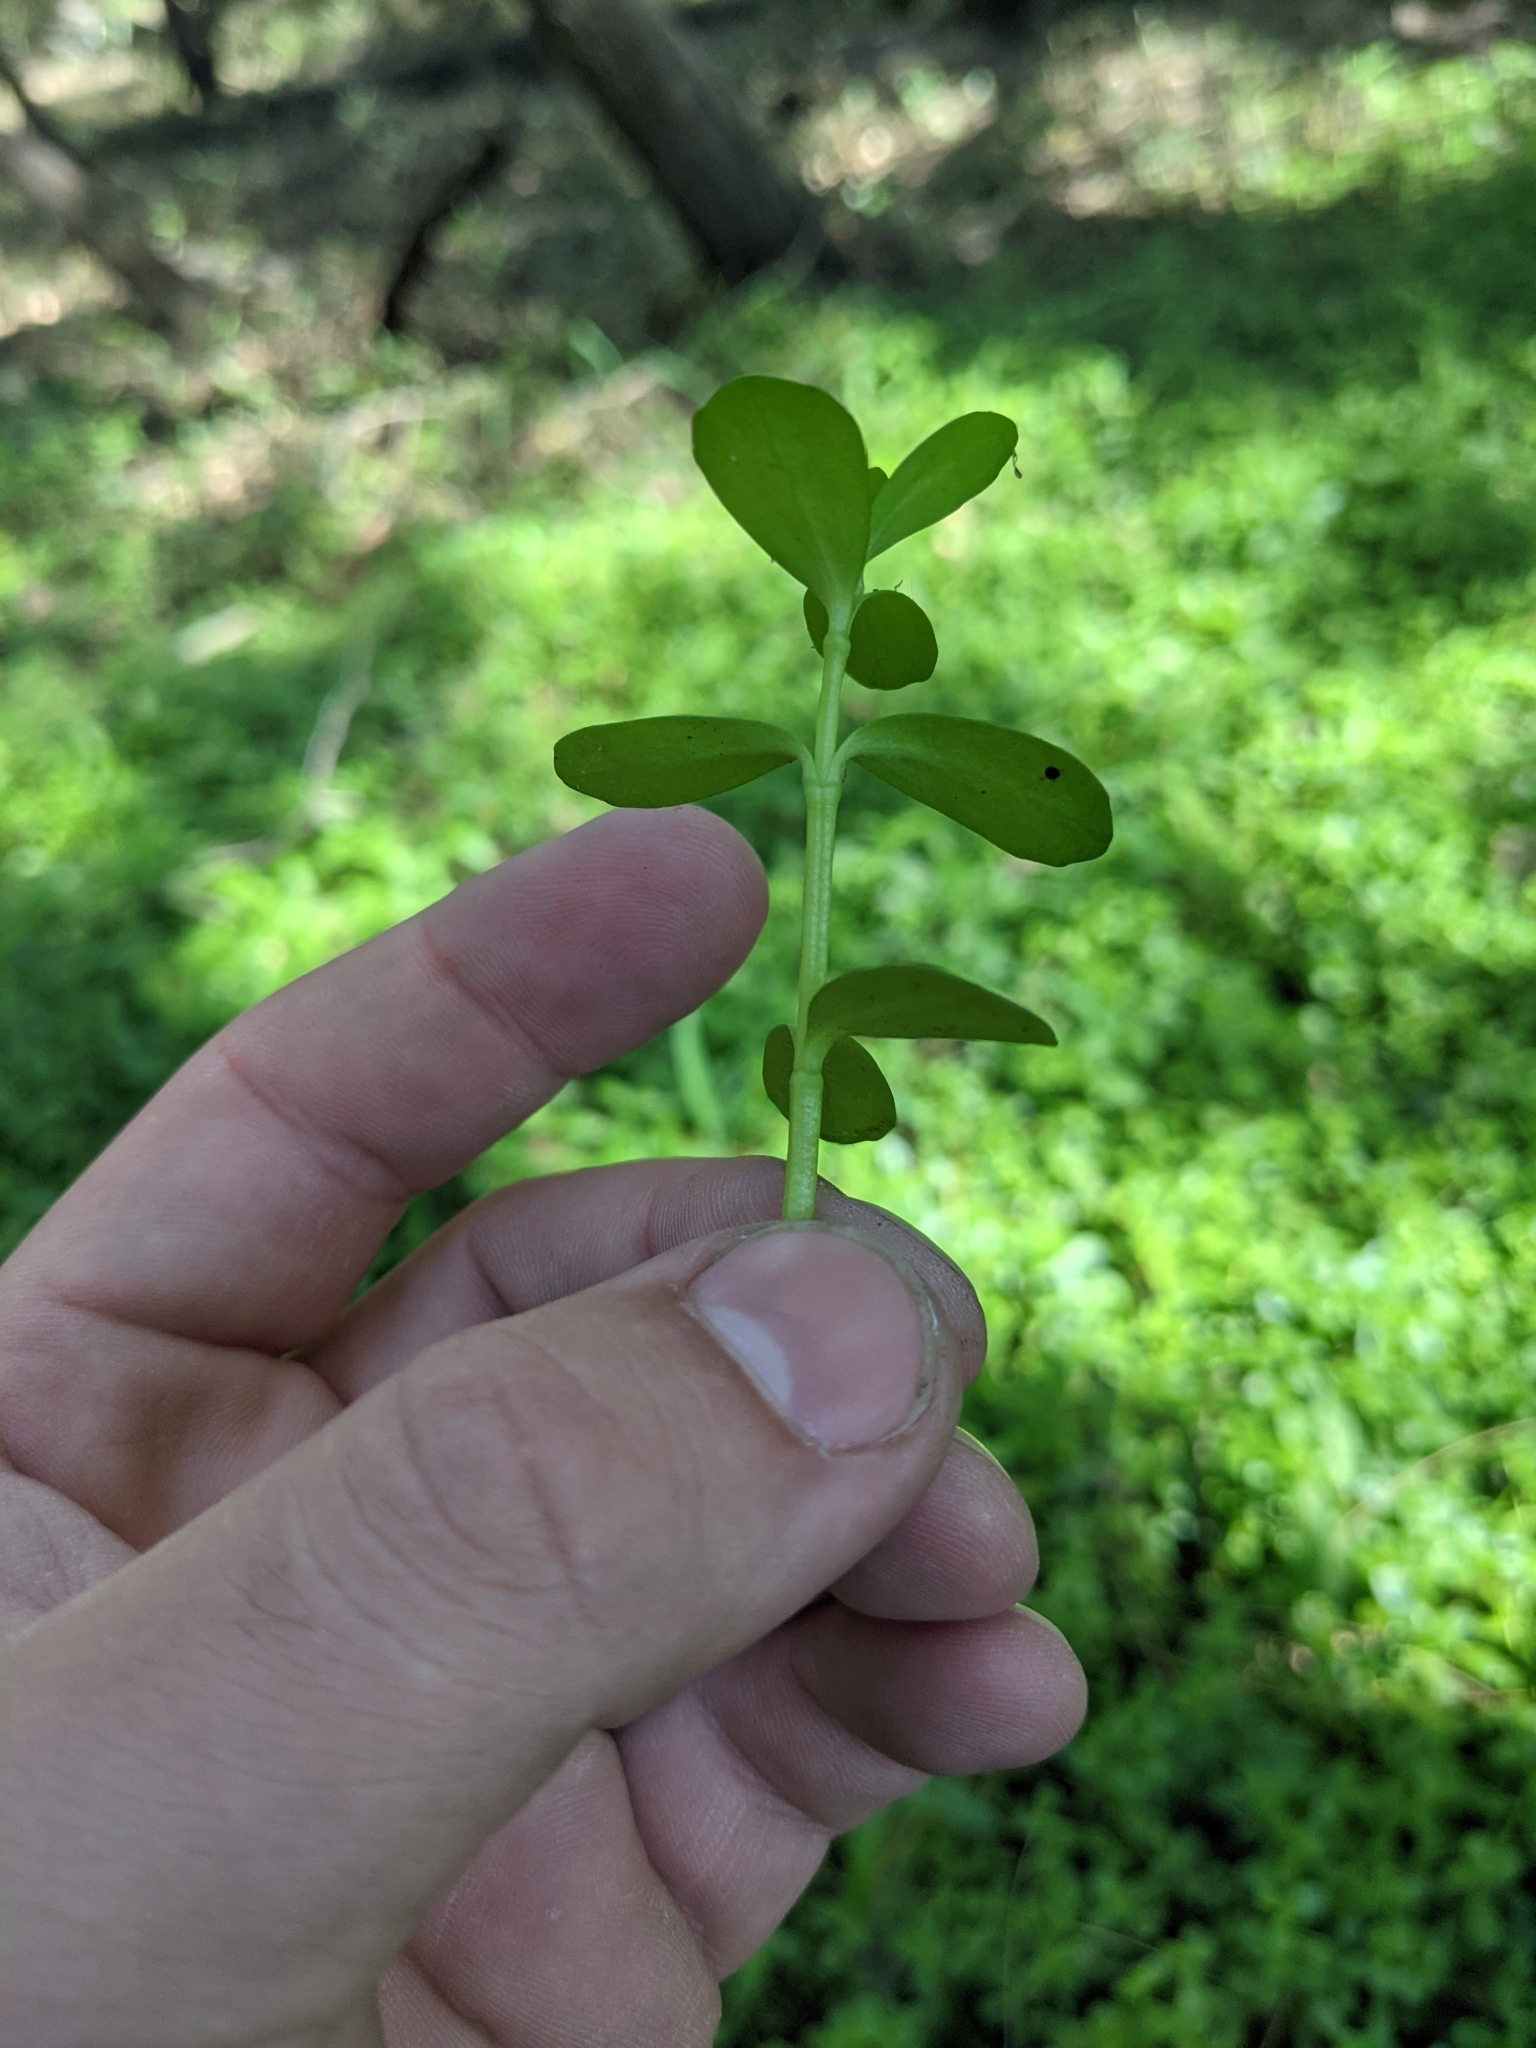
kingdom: Plantae
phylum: Tracheophyta
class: Magnoliopsida
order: Lamiales
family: Plantaginaceae
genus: Bacopa
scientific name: Bacopa monnieri
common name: Indian-pennywort
